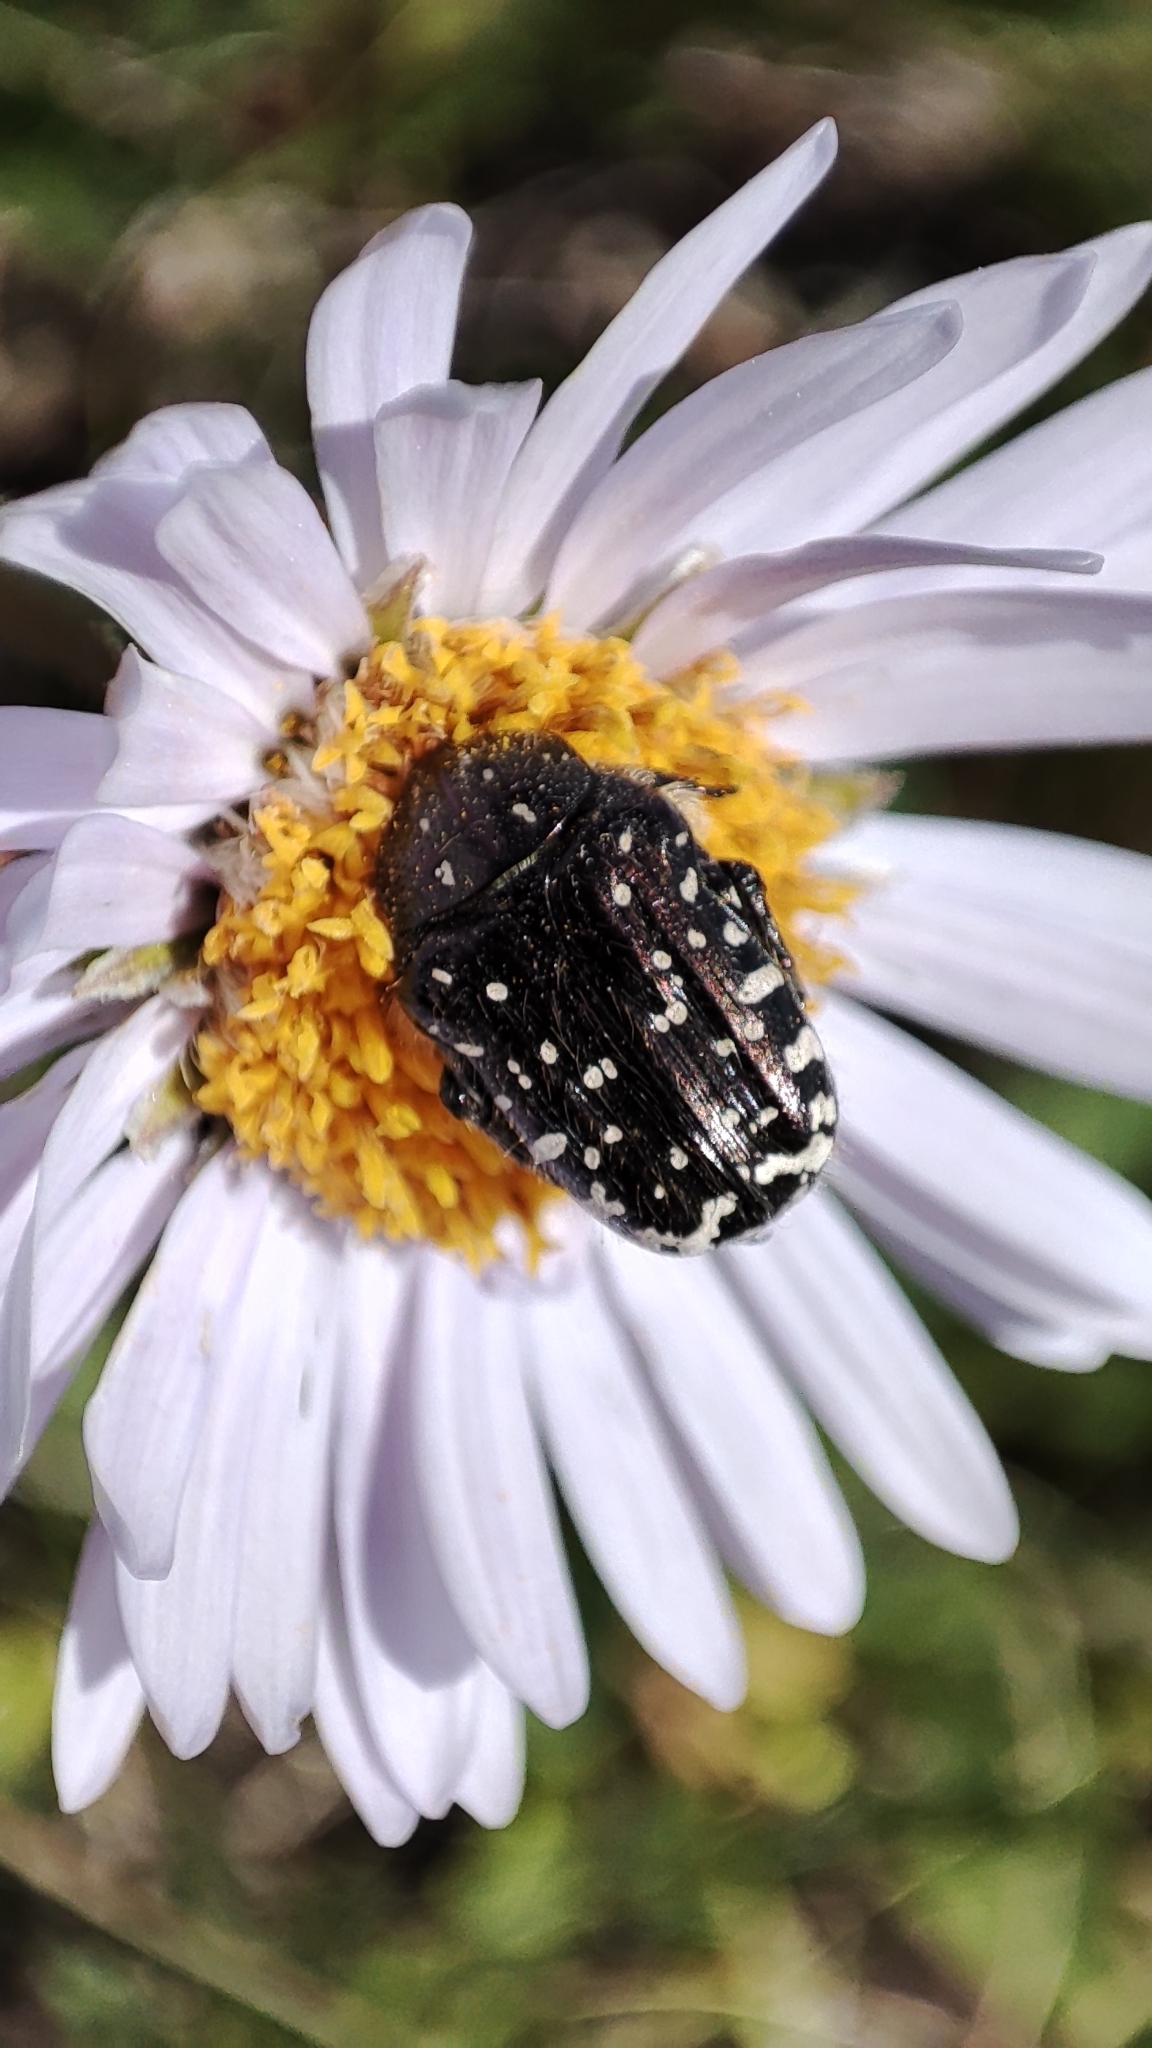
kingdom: Animalia
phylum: Arthropoda
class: Insecta
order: Coleoptera
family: Scarabaeidae
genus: Oxythyrea
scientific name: Oxythyrea funesta
